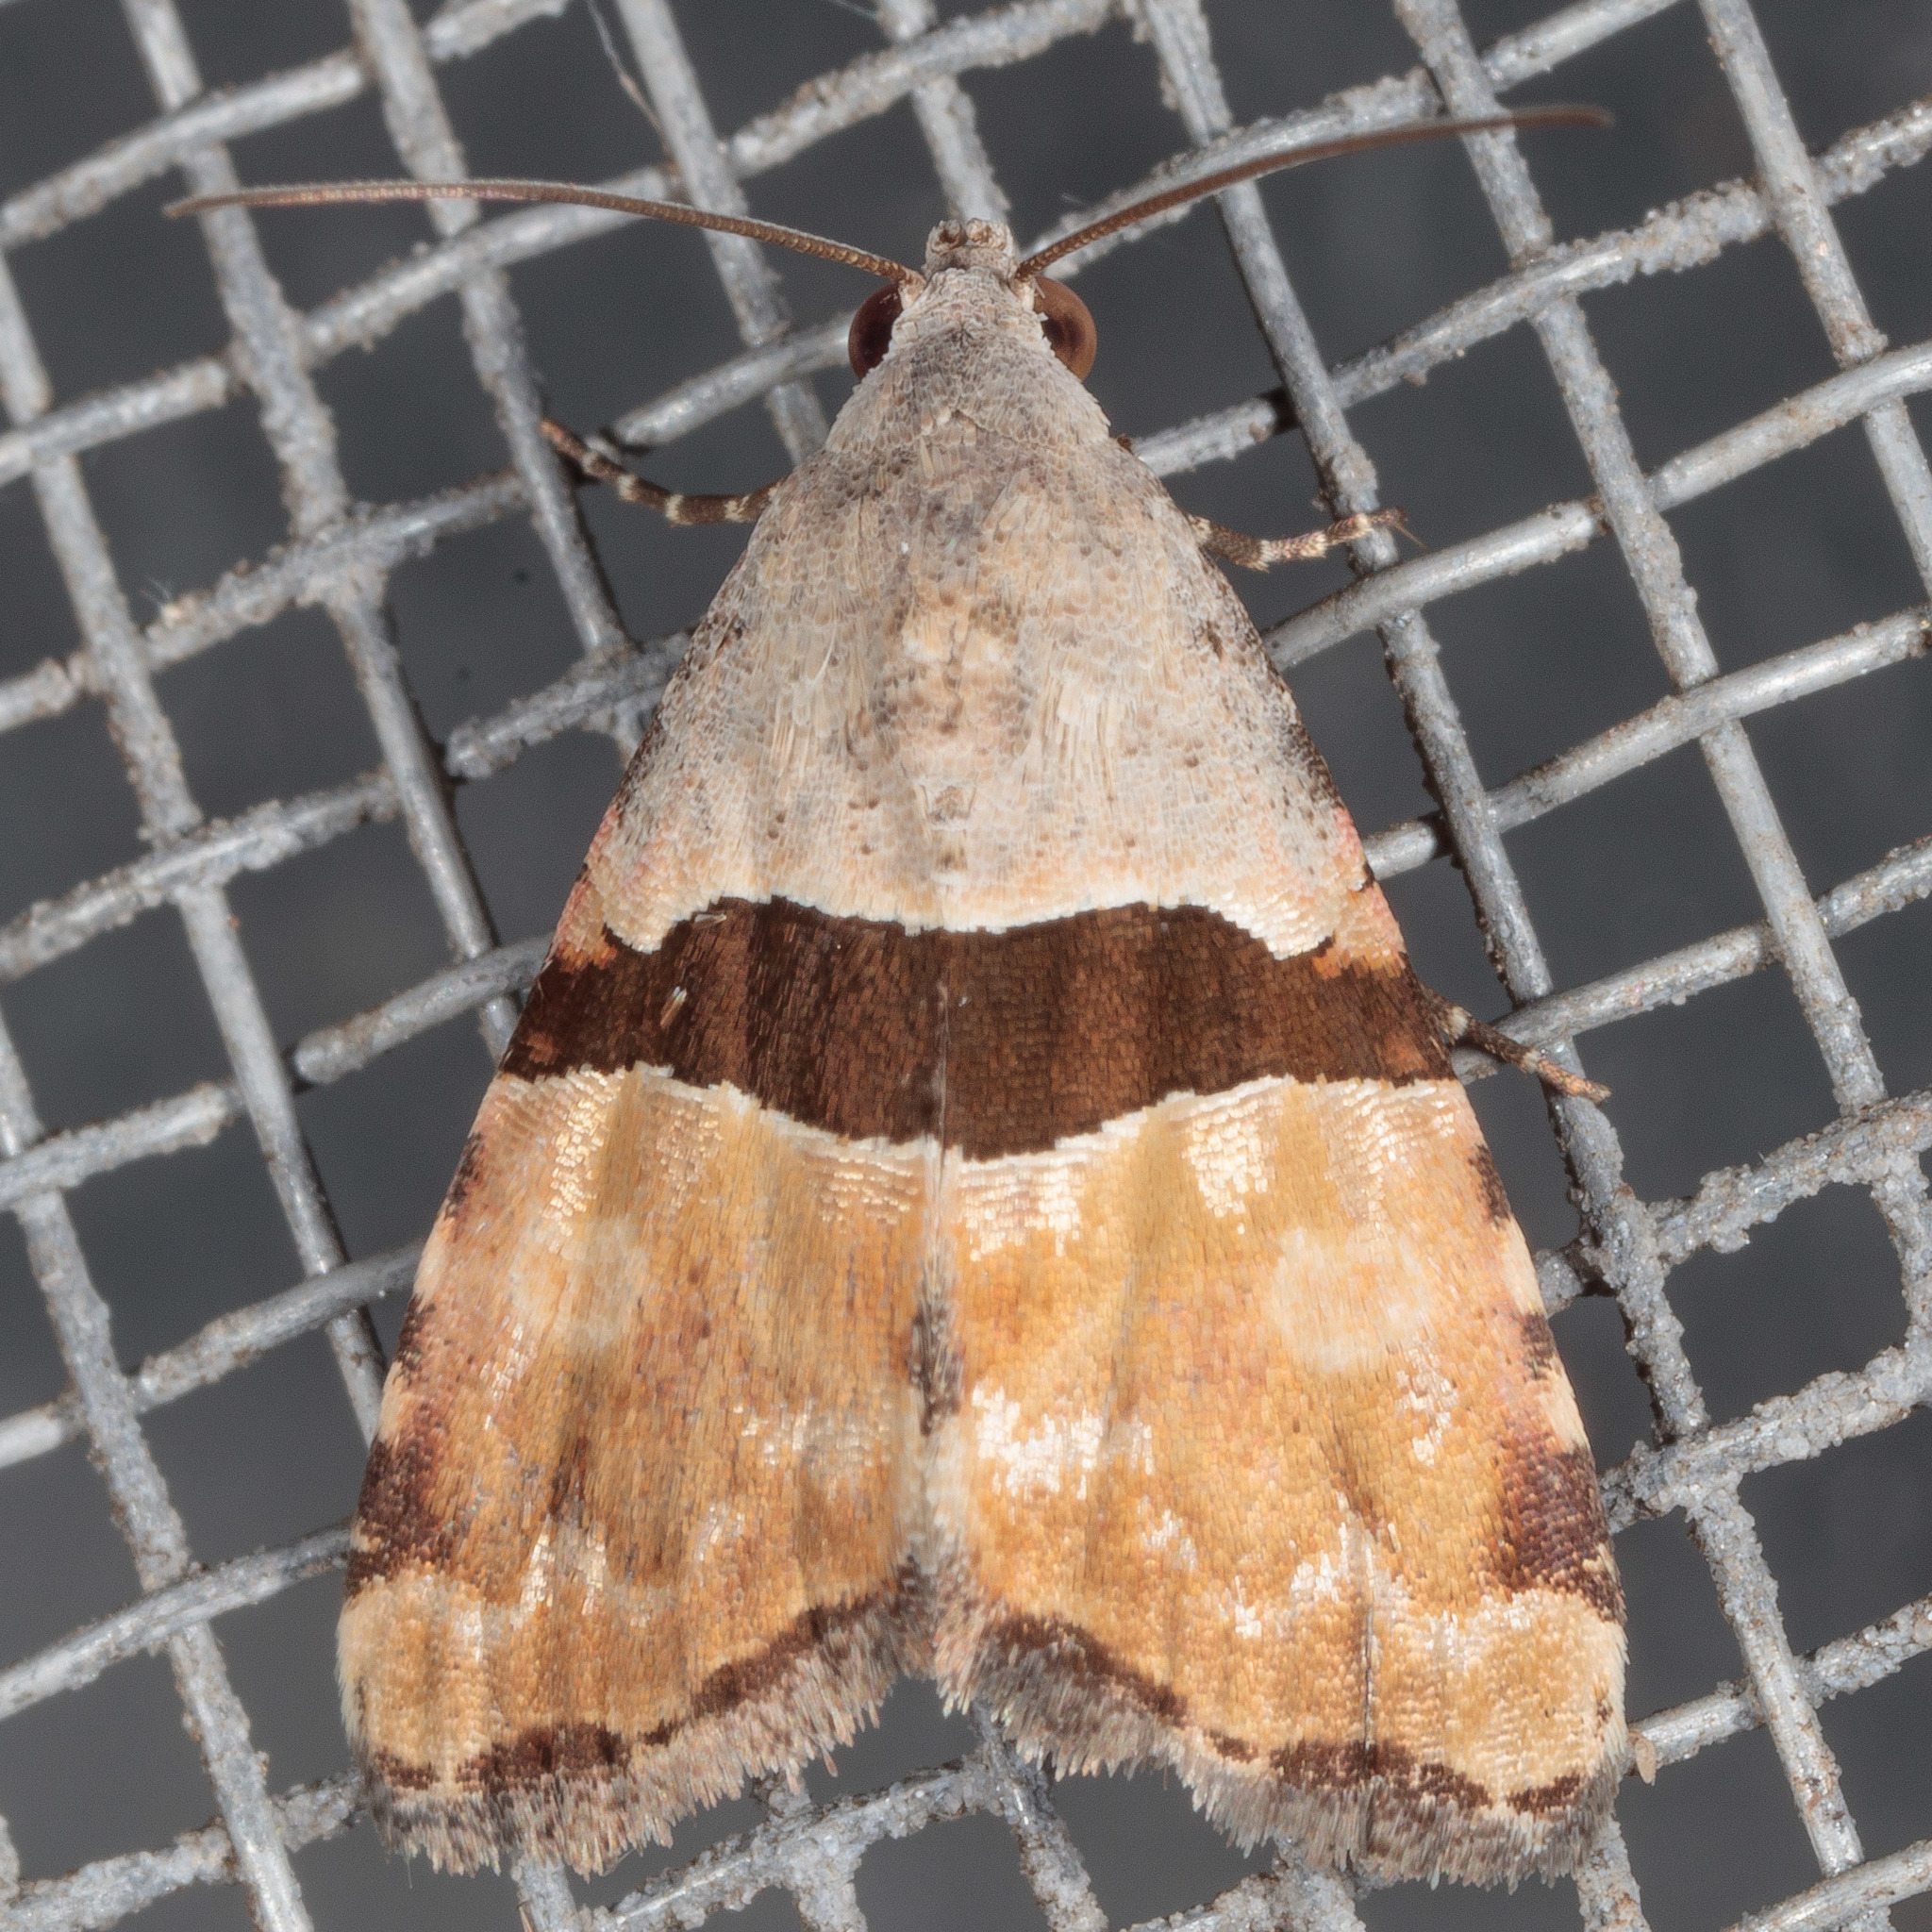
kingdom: Animalia
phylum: Arthropoda
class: Insecta
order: Lepidoptera
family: Noctuidae
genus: Cobubatha
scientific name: Cobubatha lixiva
